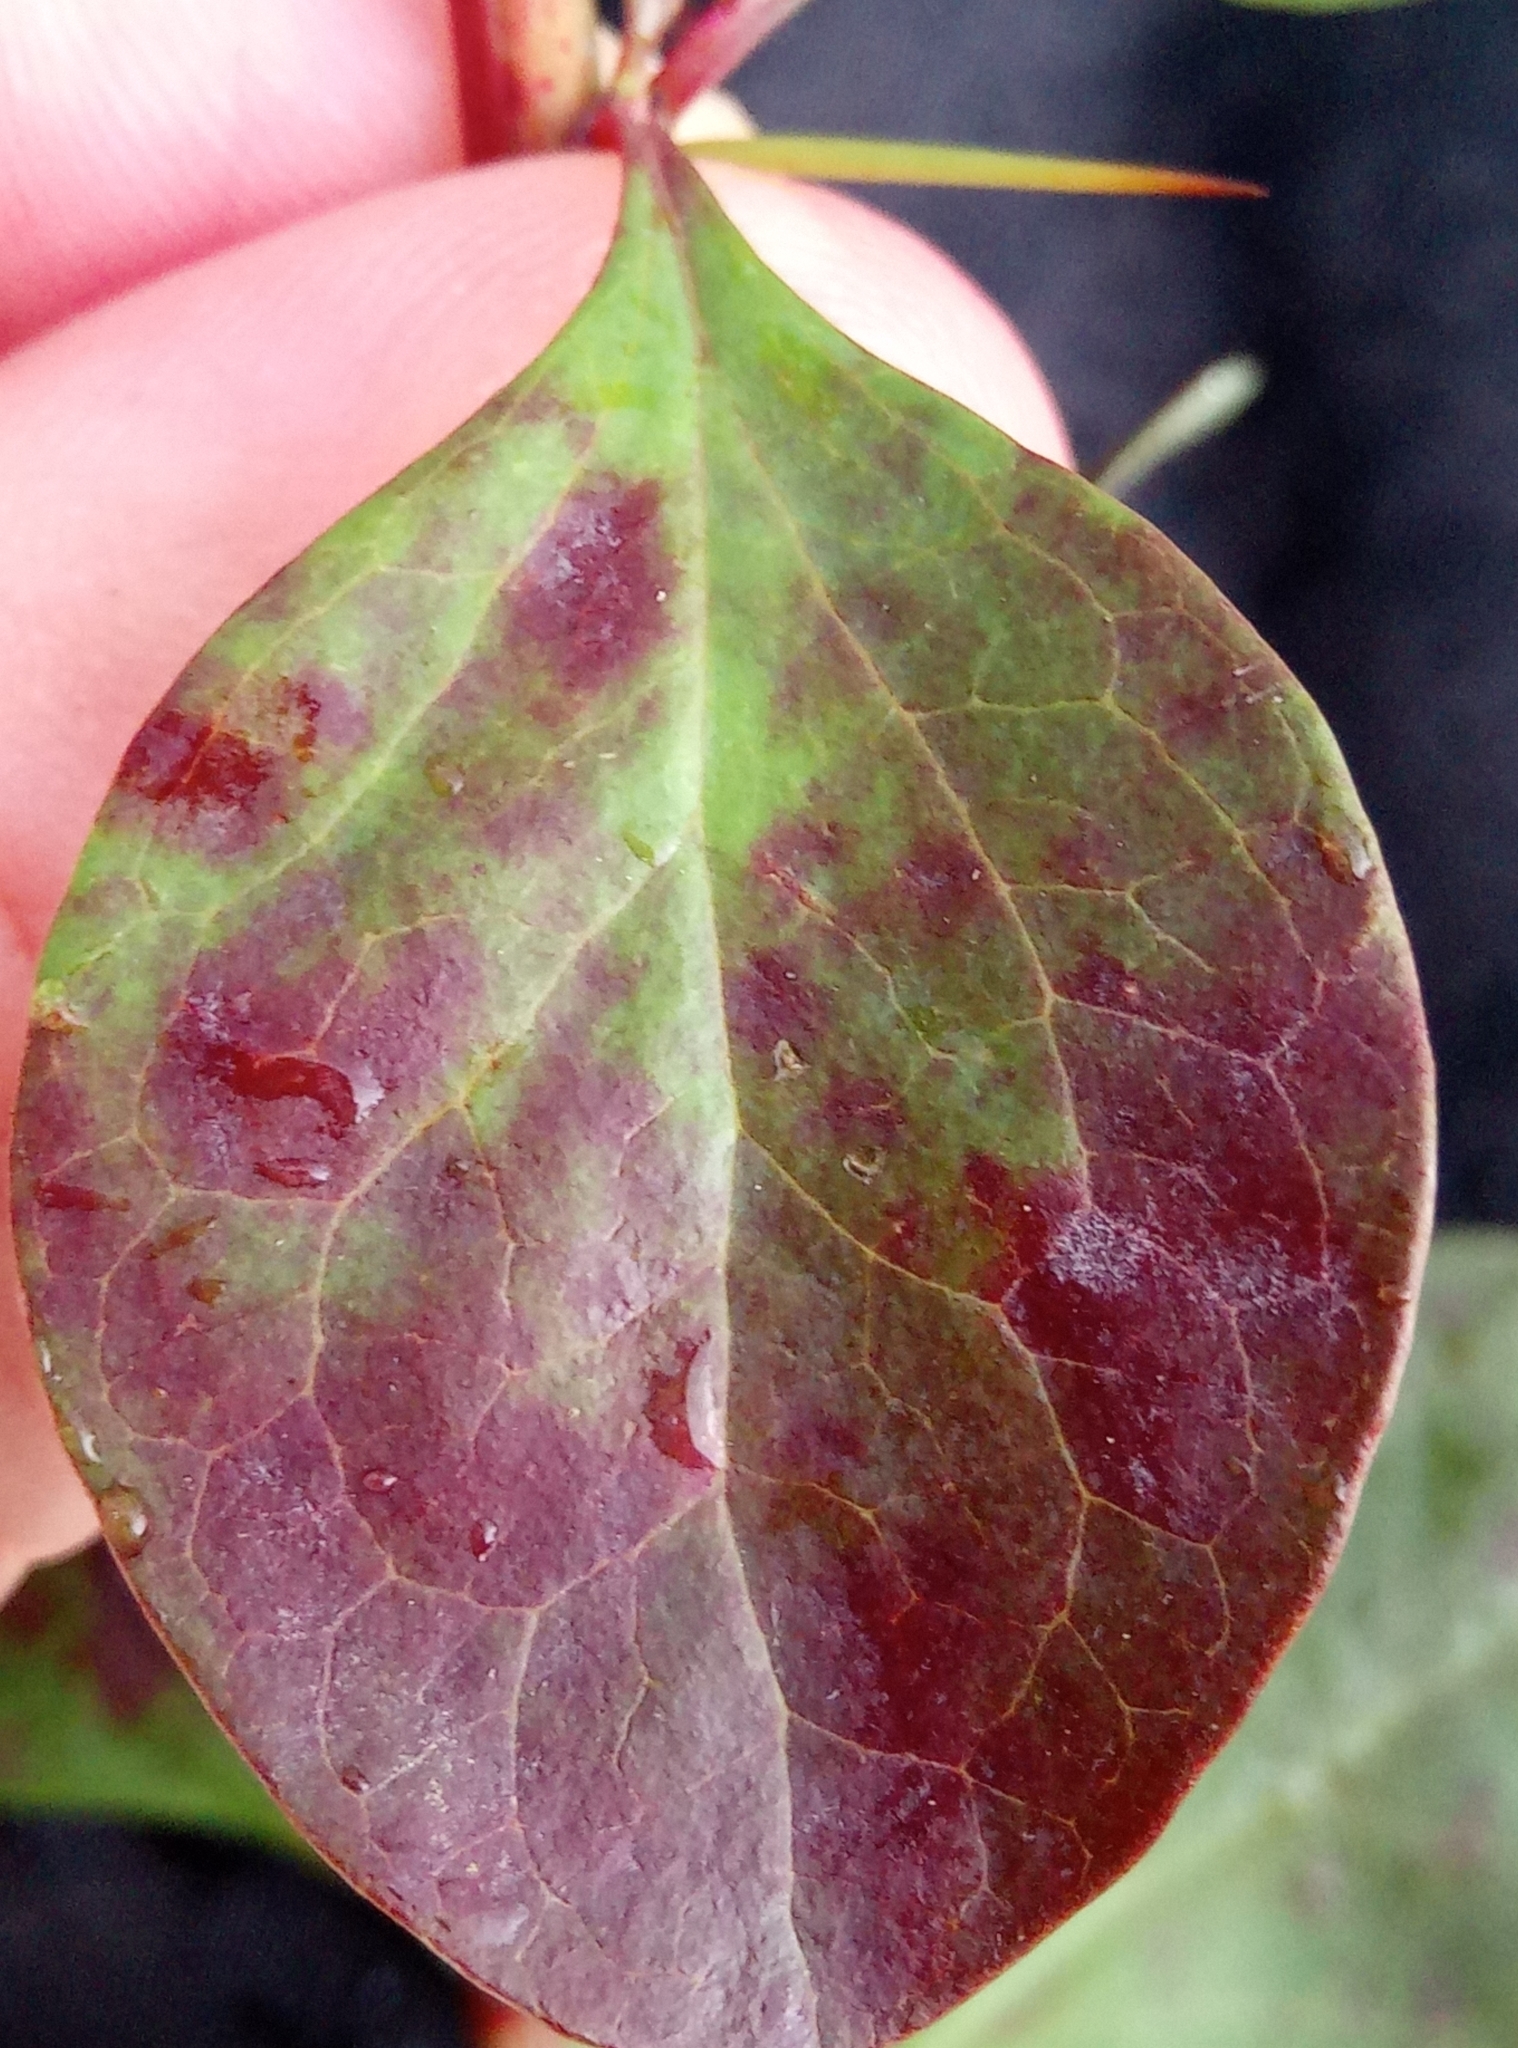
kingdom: Plantae
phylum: Tracheophyta
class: Magnoliopsida
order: Ranunculales
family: Berberidaceae
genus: Berberis
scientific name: Berberis thunbergii
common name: Japanese barberry
